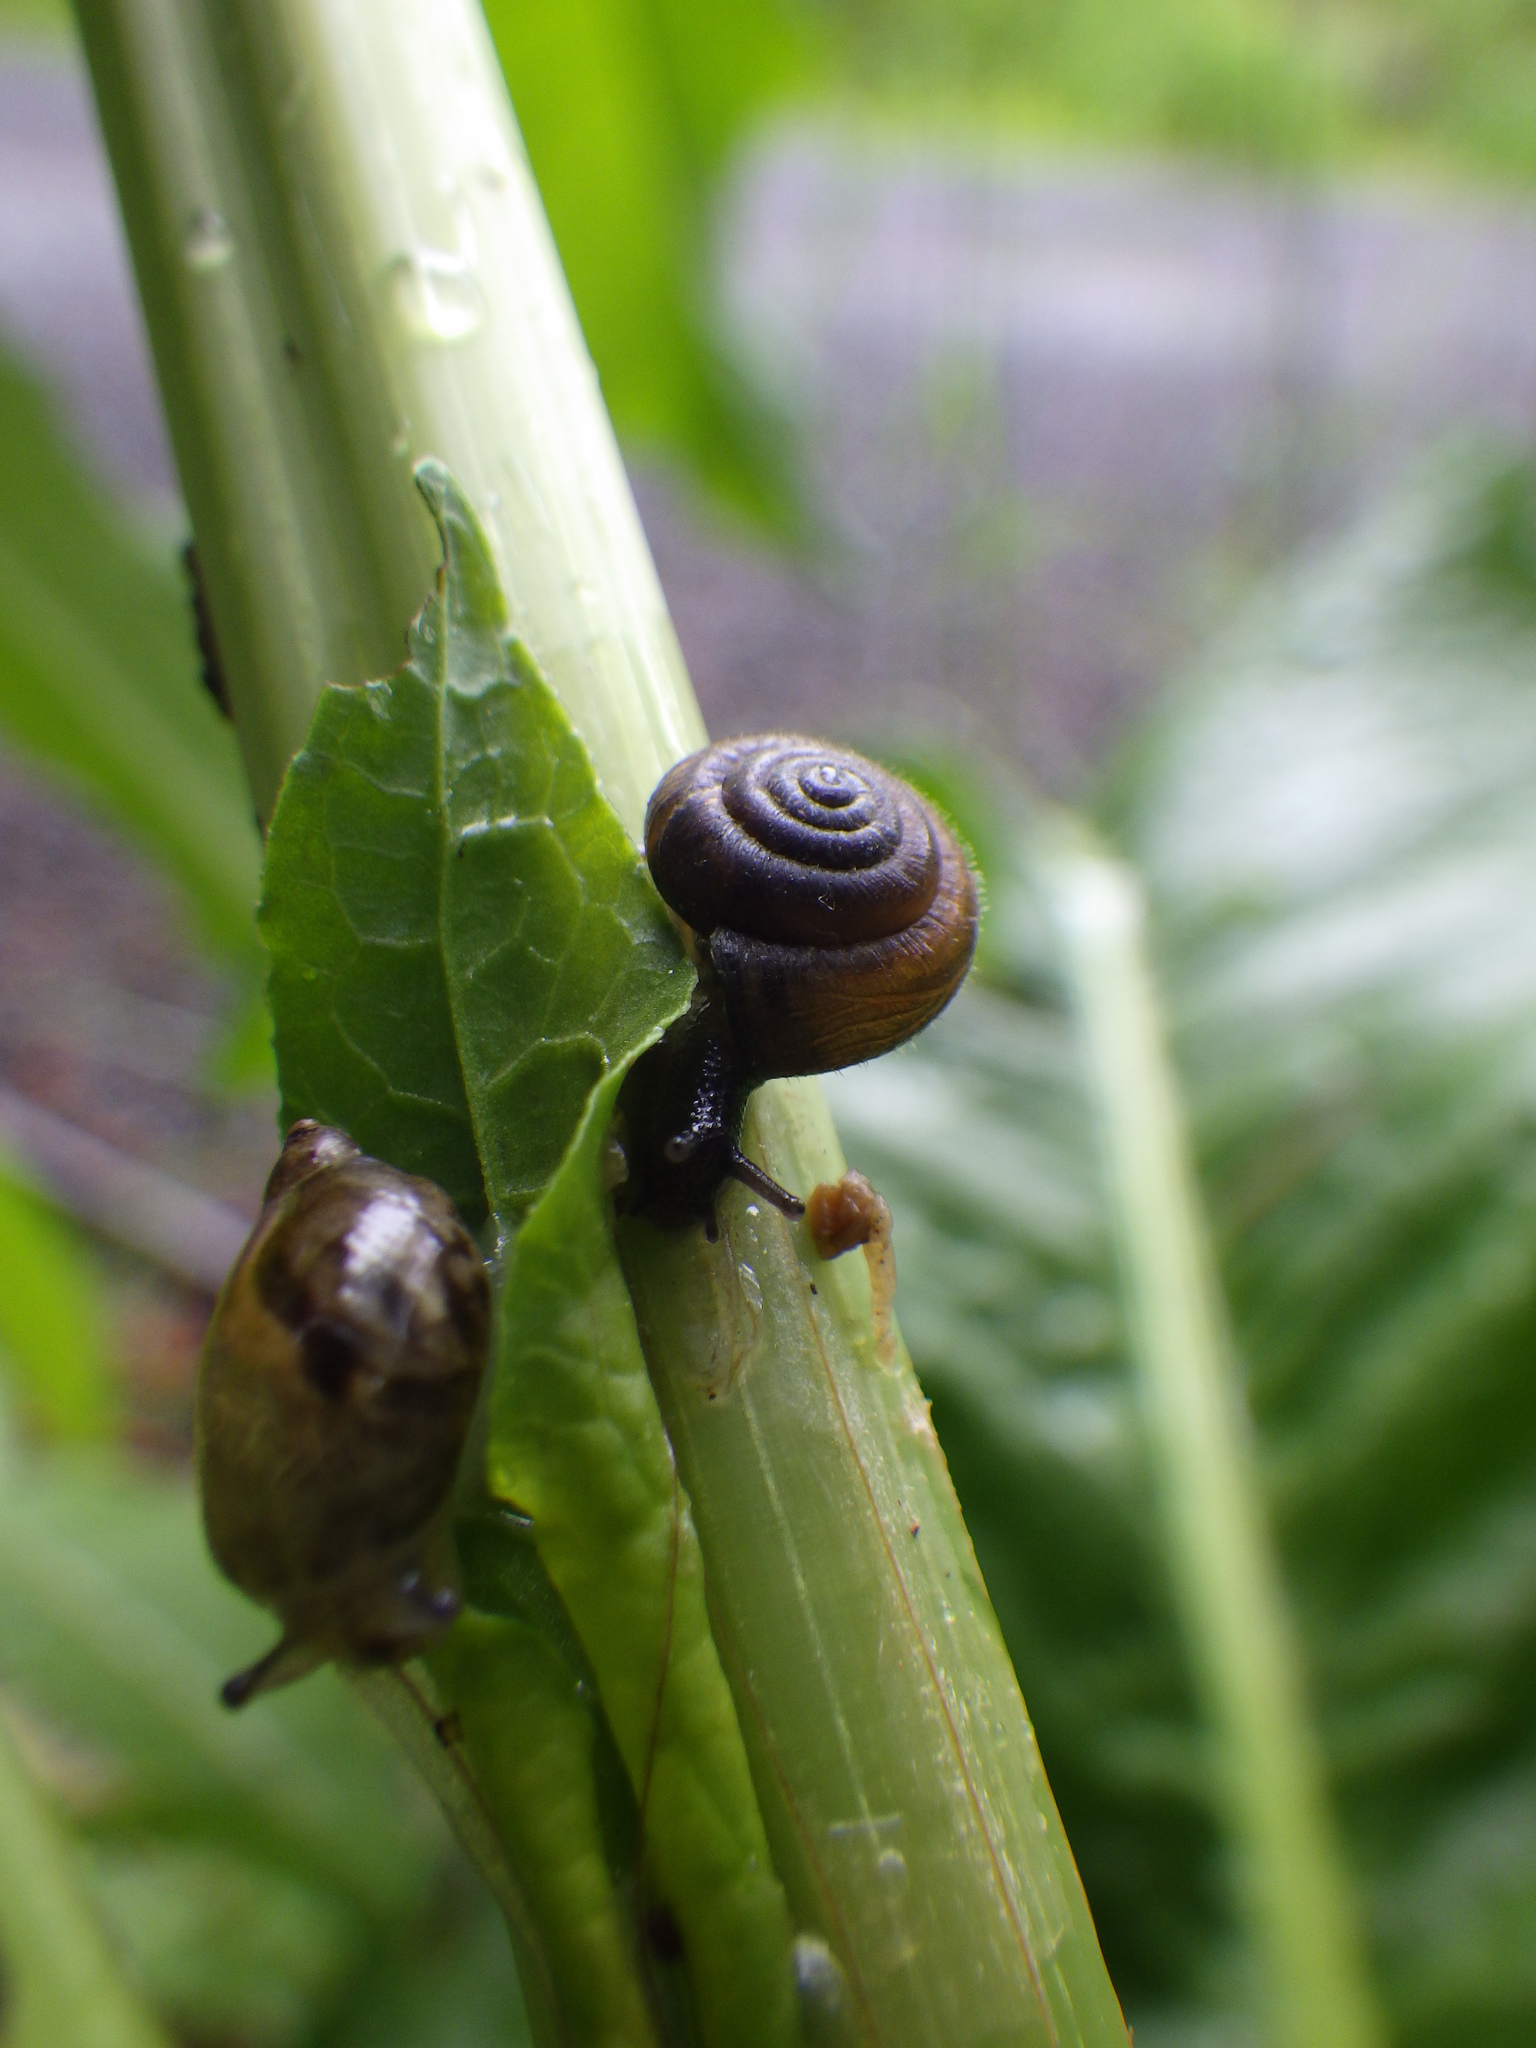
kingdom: Animalia
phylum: Mollusca
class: Gastropoda
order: Stylommatophora
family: Hygromiidae
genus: Trochulus
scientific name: Trochulus hispidus
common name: Hairy snail
